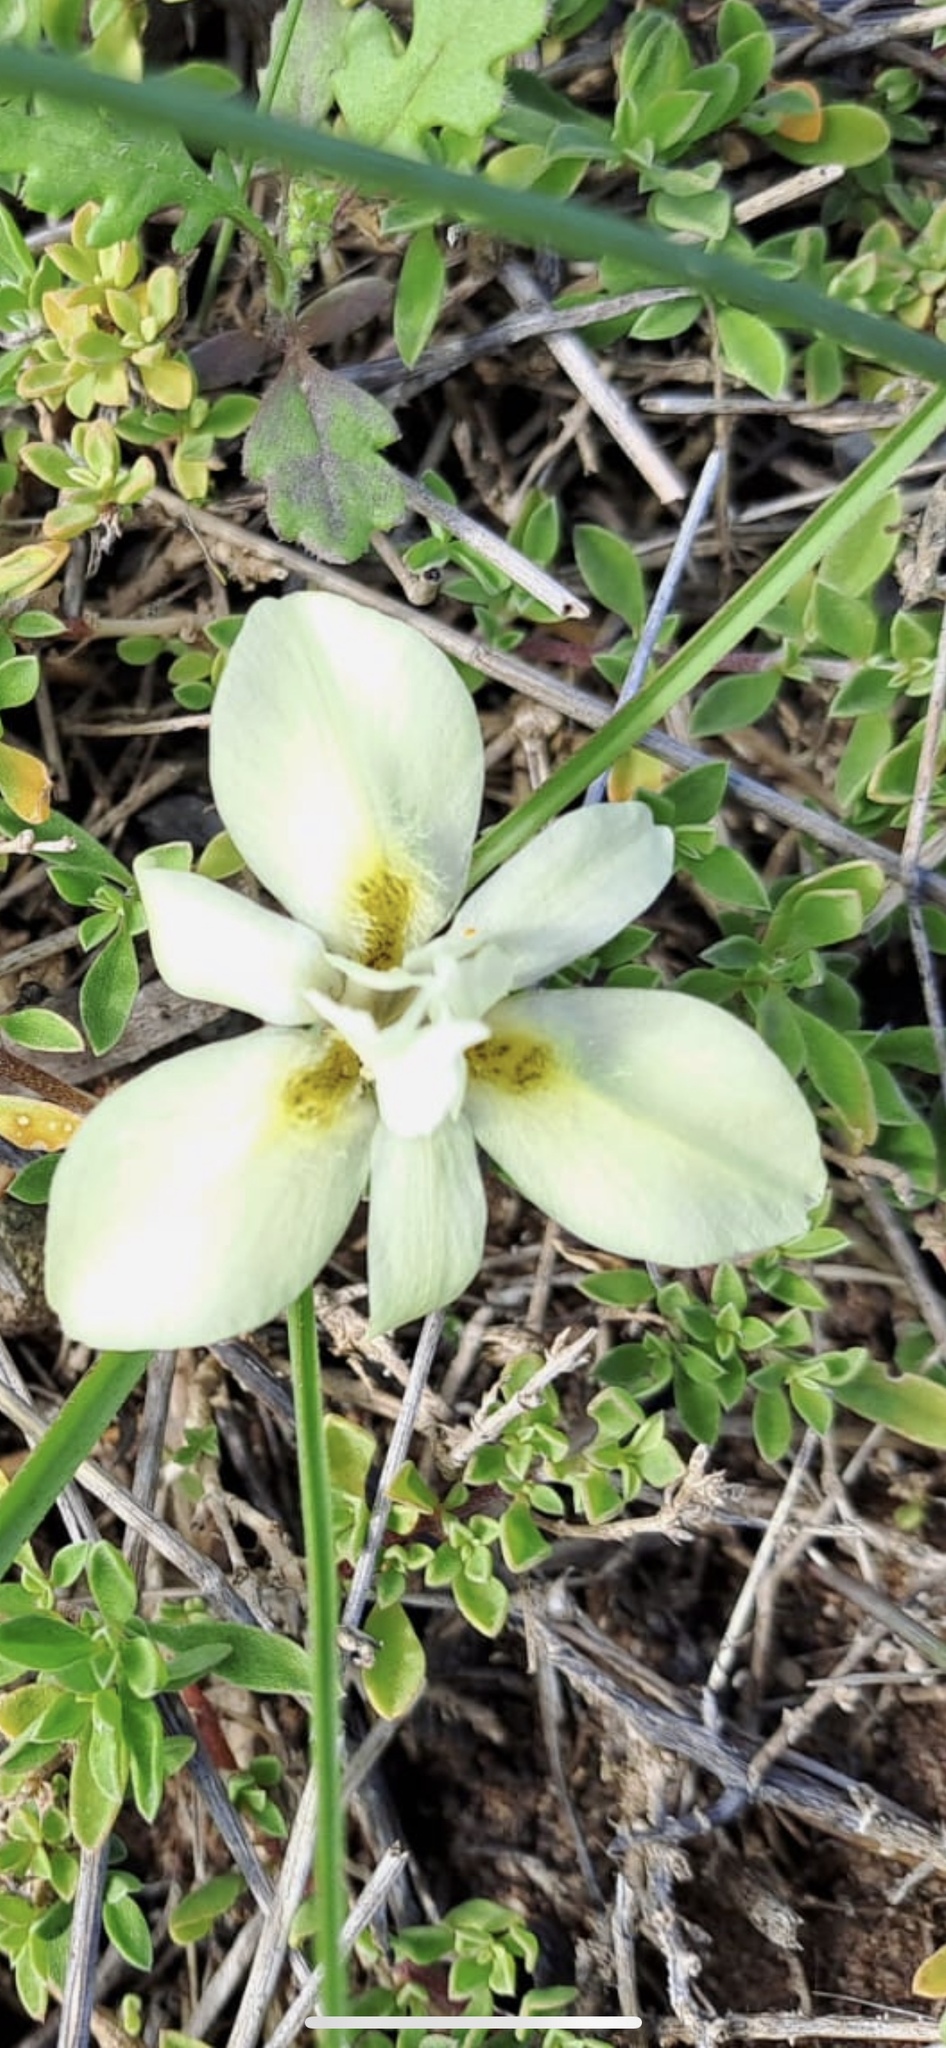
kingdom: Plantae
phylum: Tracheophyta
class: Liliopsida
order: Asparagales
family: Iridaceae
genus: Moraea
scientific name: Moraea tricolor
